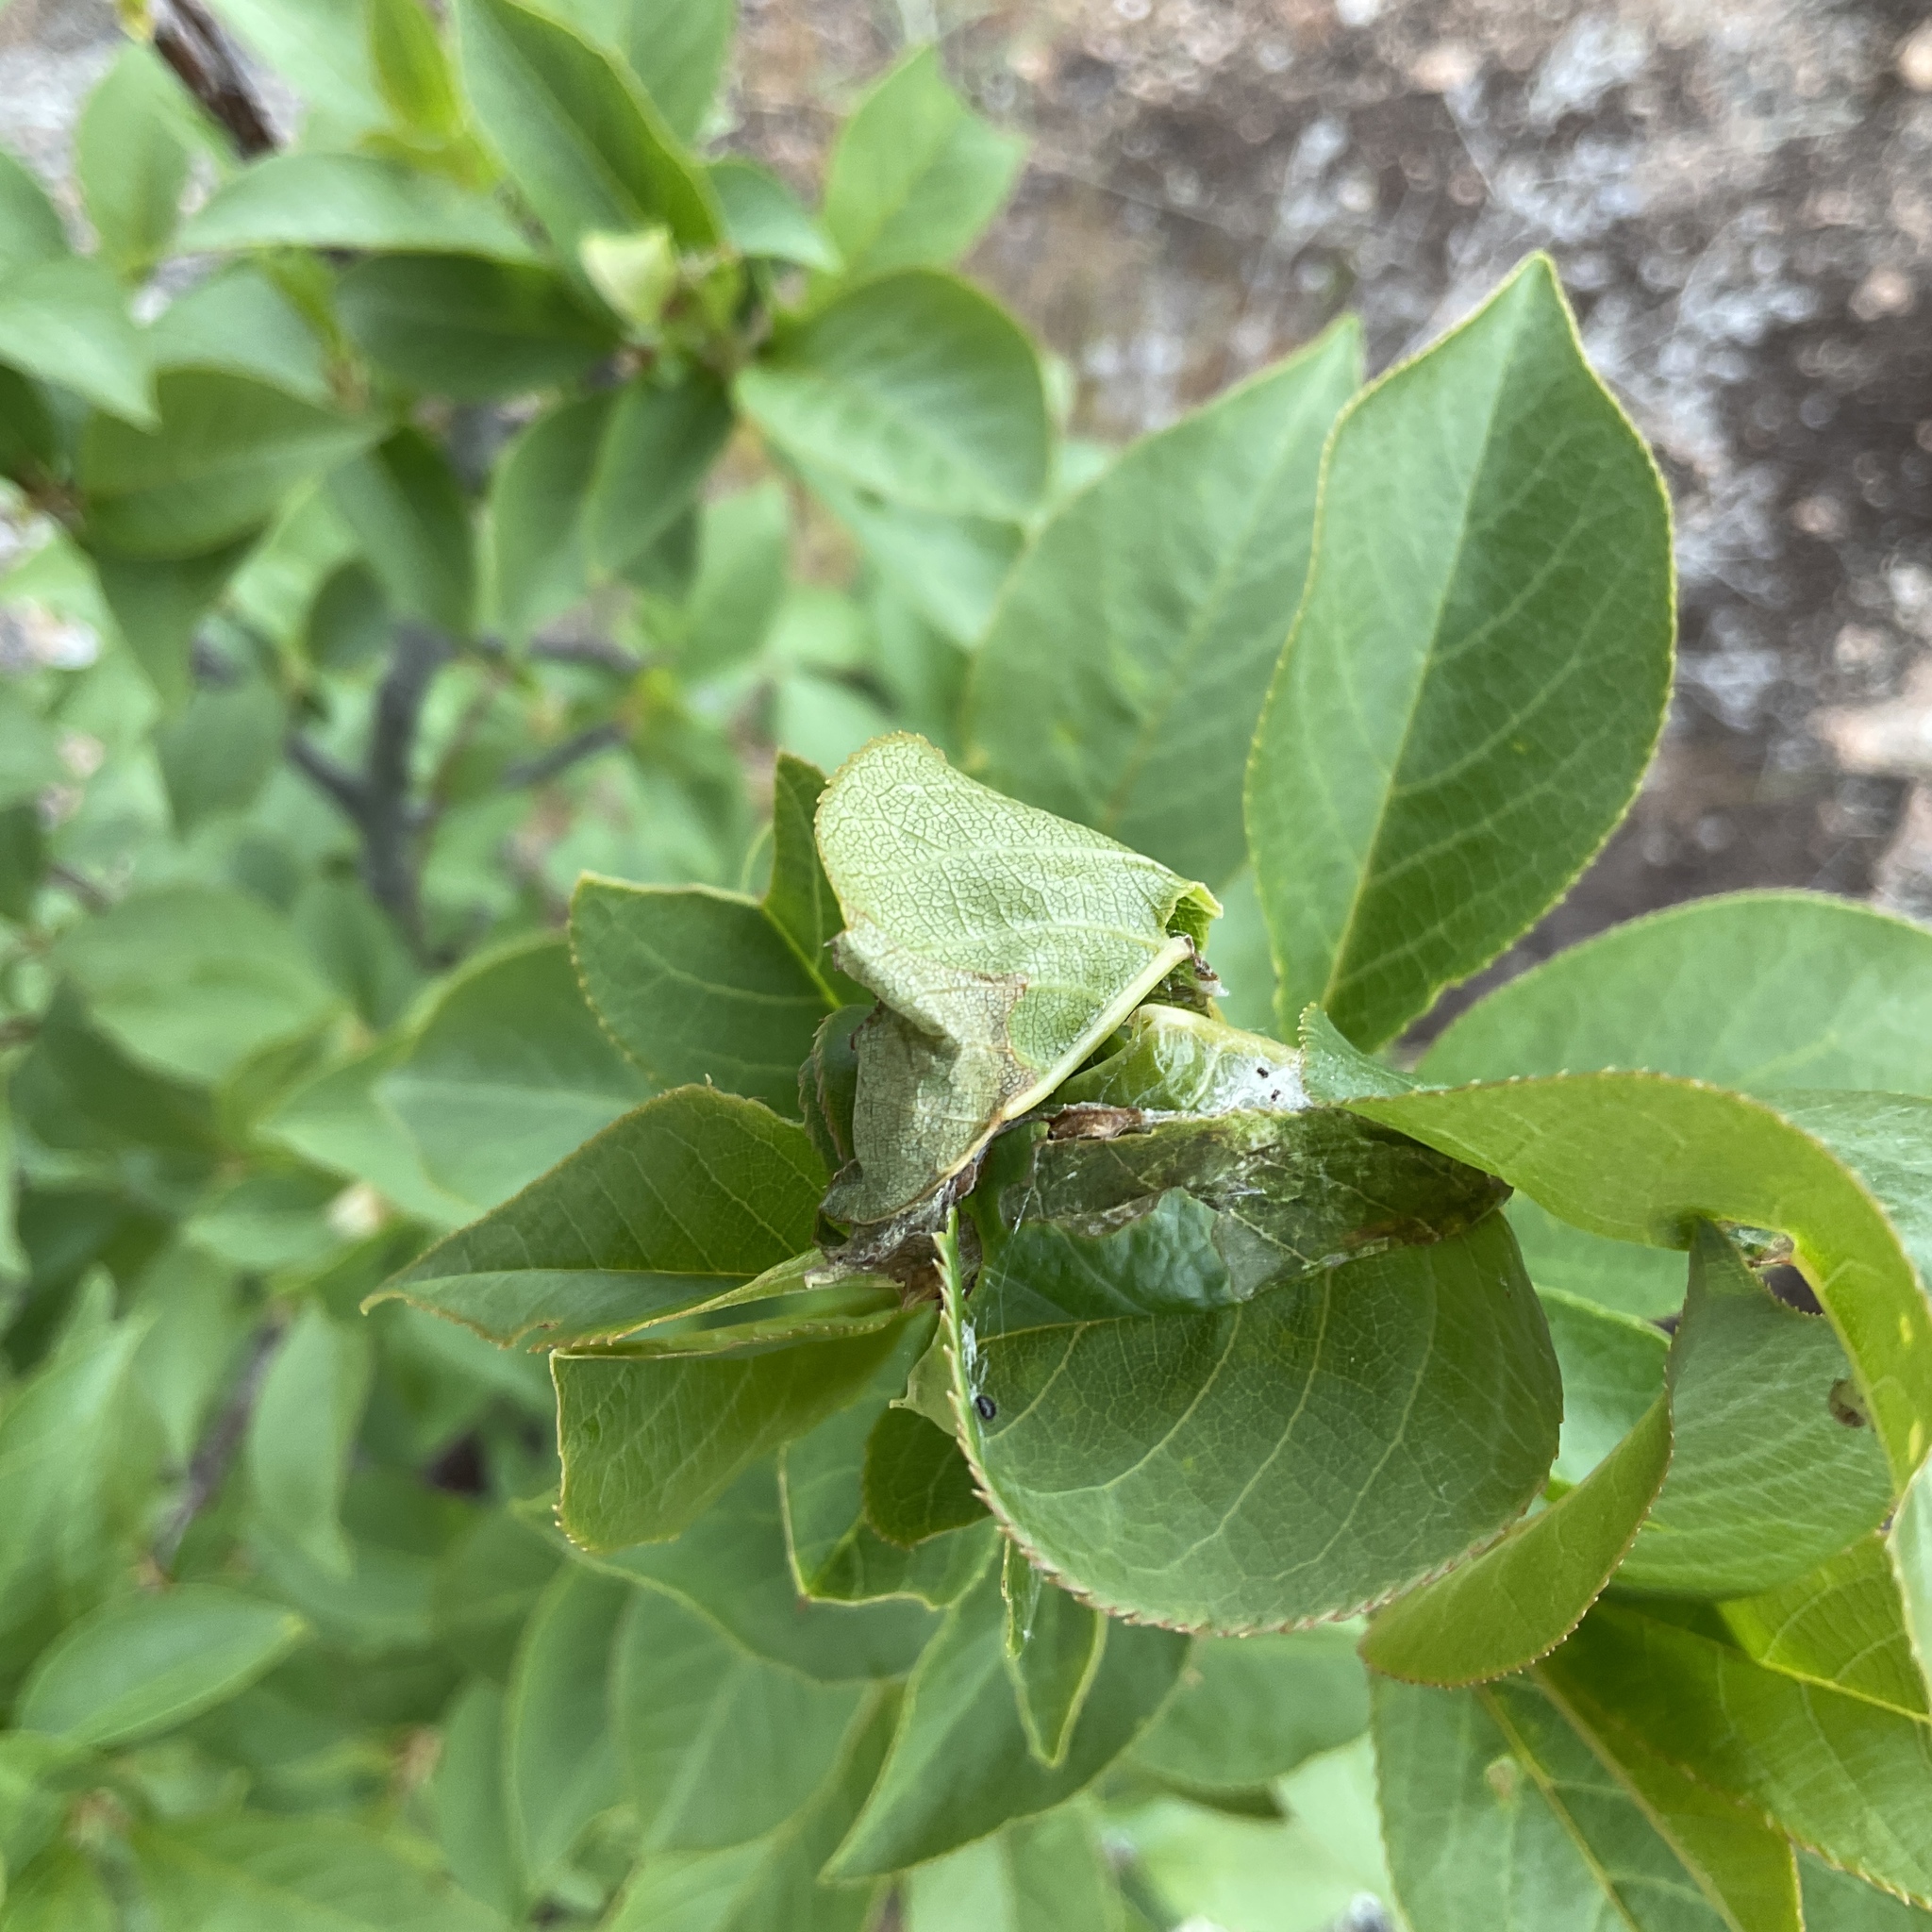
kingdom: Plantae
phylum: Tracheophyta
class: Magnoliopsida
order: Rosales
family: Rosaceae
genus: Prunus
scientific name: Prunus virginiana
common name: Chokecherry
